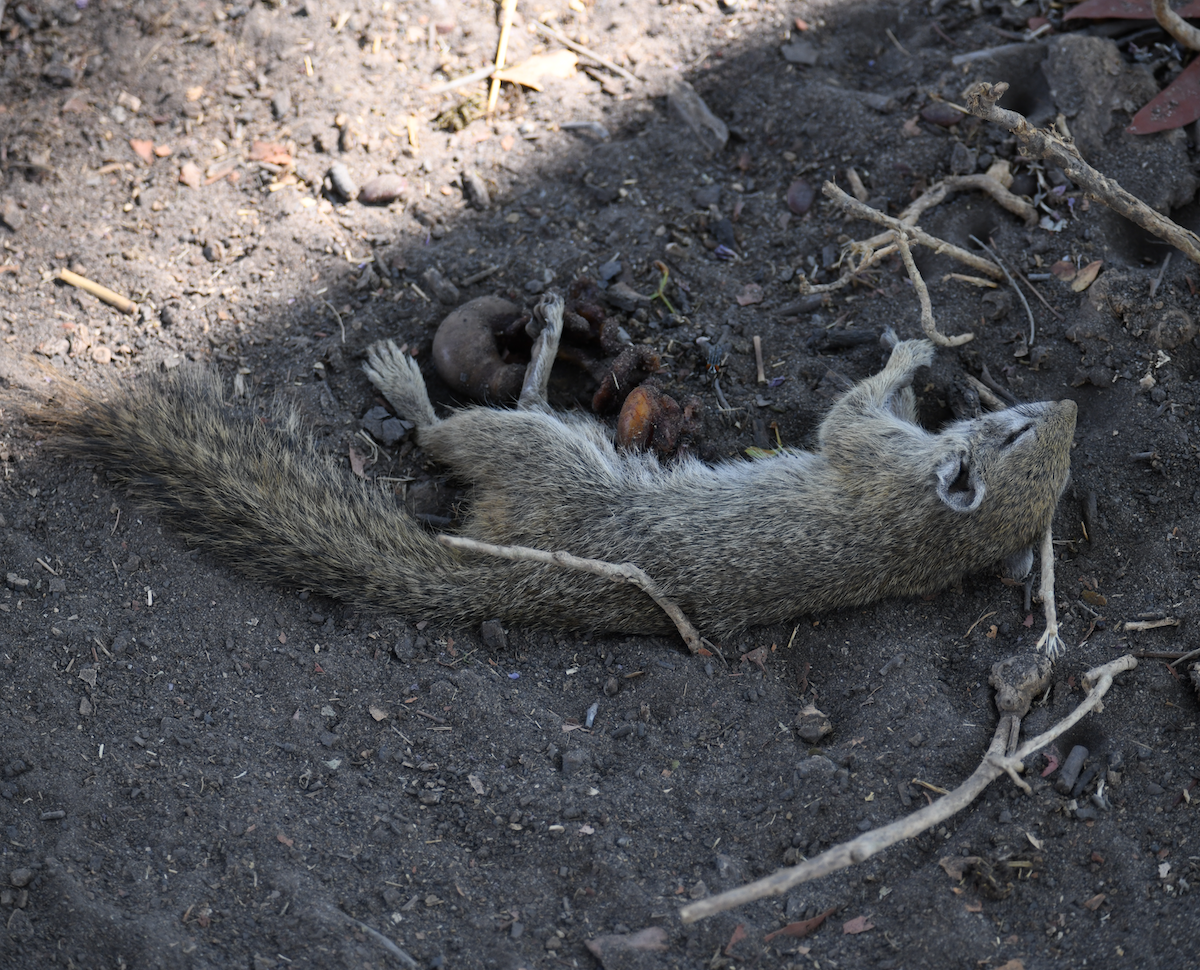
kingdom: Animalia
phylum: Chordata
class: Mammalia
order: Rodentia
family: Sciuridae
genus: Paraxerus
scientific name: Paraxerus cepapi
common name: Smith's bush squirrel
